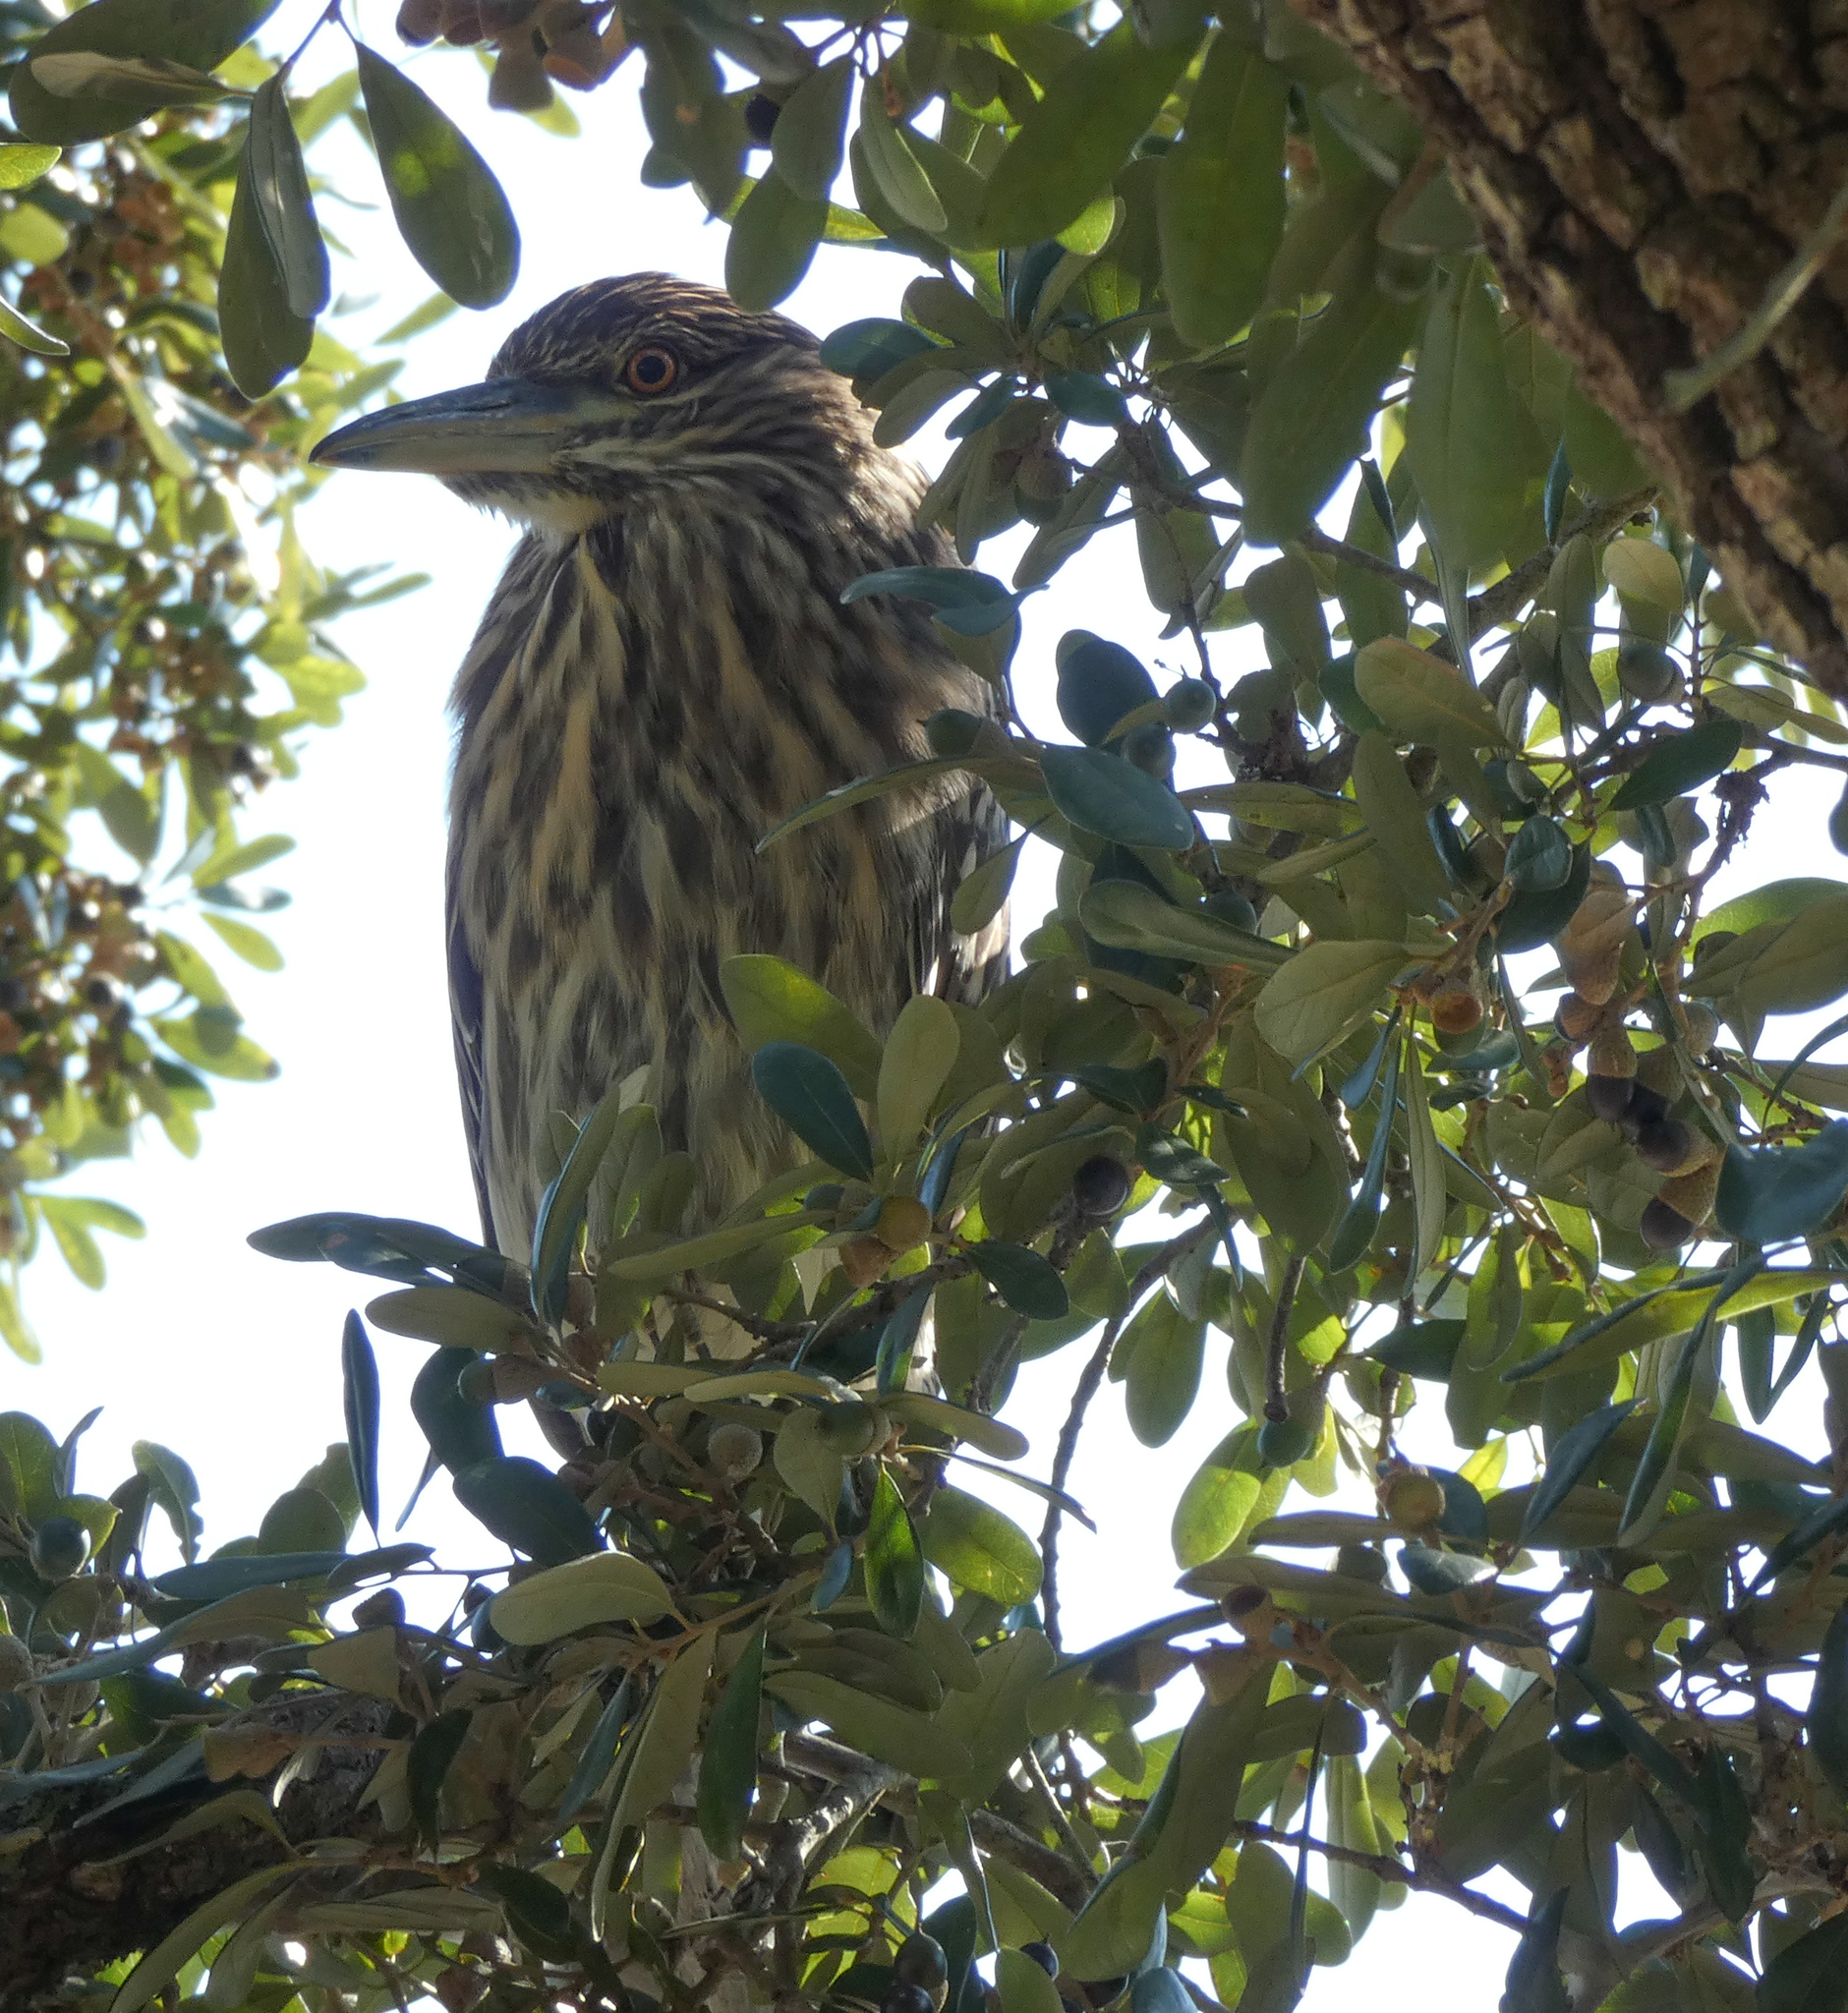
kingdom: Animalia
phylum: Chordata
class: Aves
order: Pelecaniformes
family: Ardeidae
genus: Nycticorax
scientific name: Nycticorax nycticorax
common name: Black-crowned night heron
